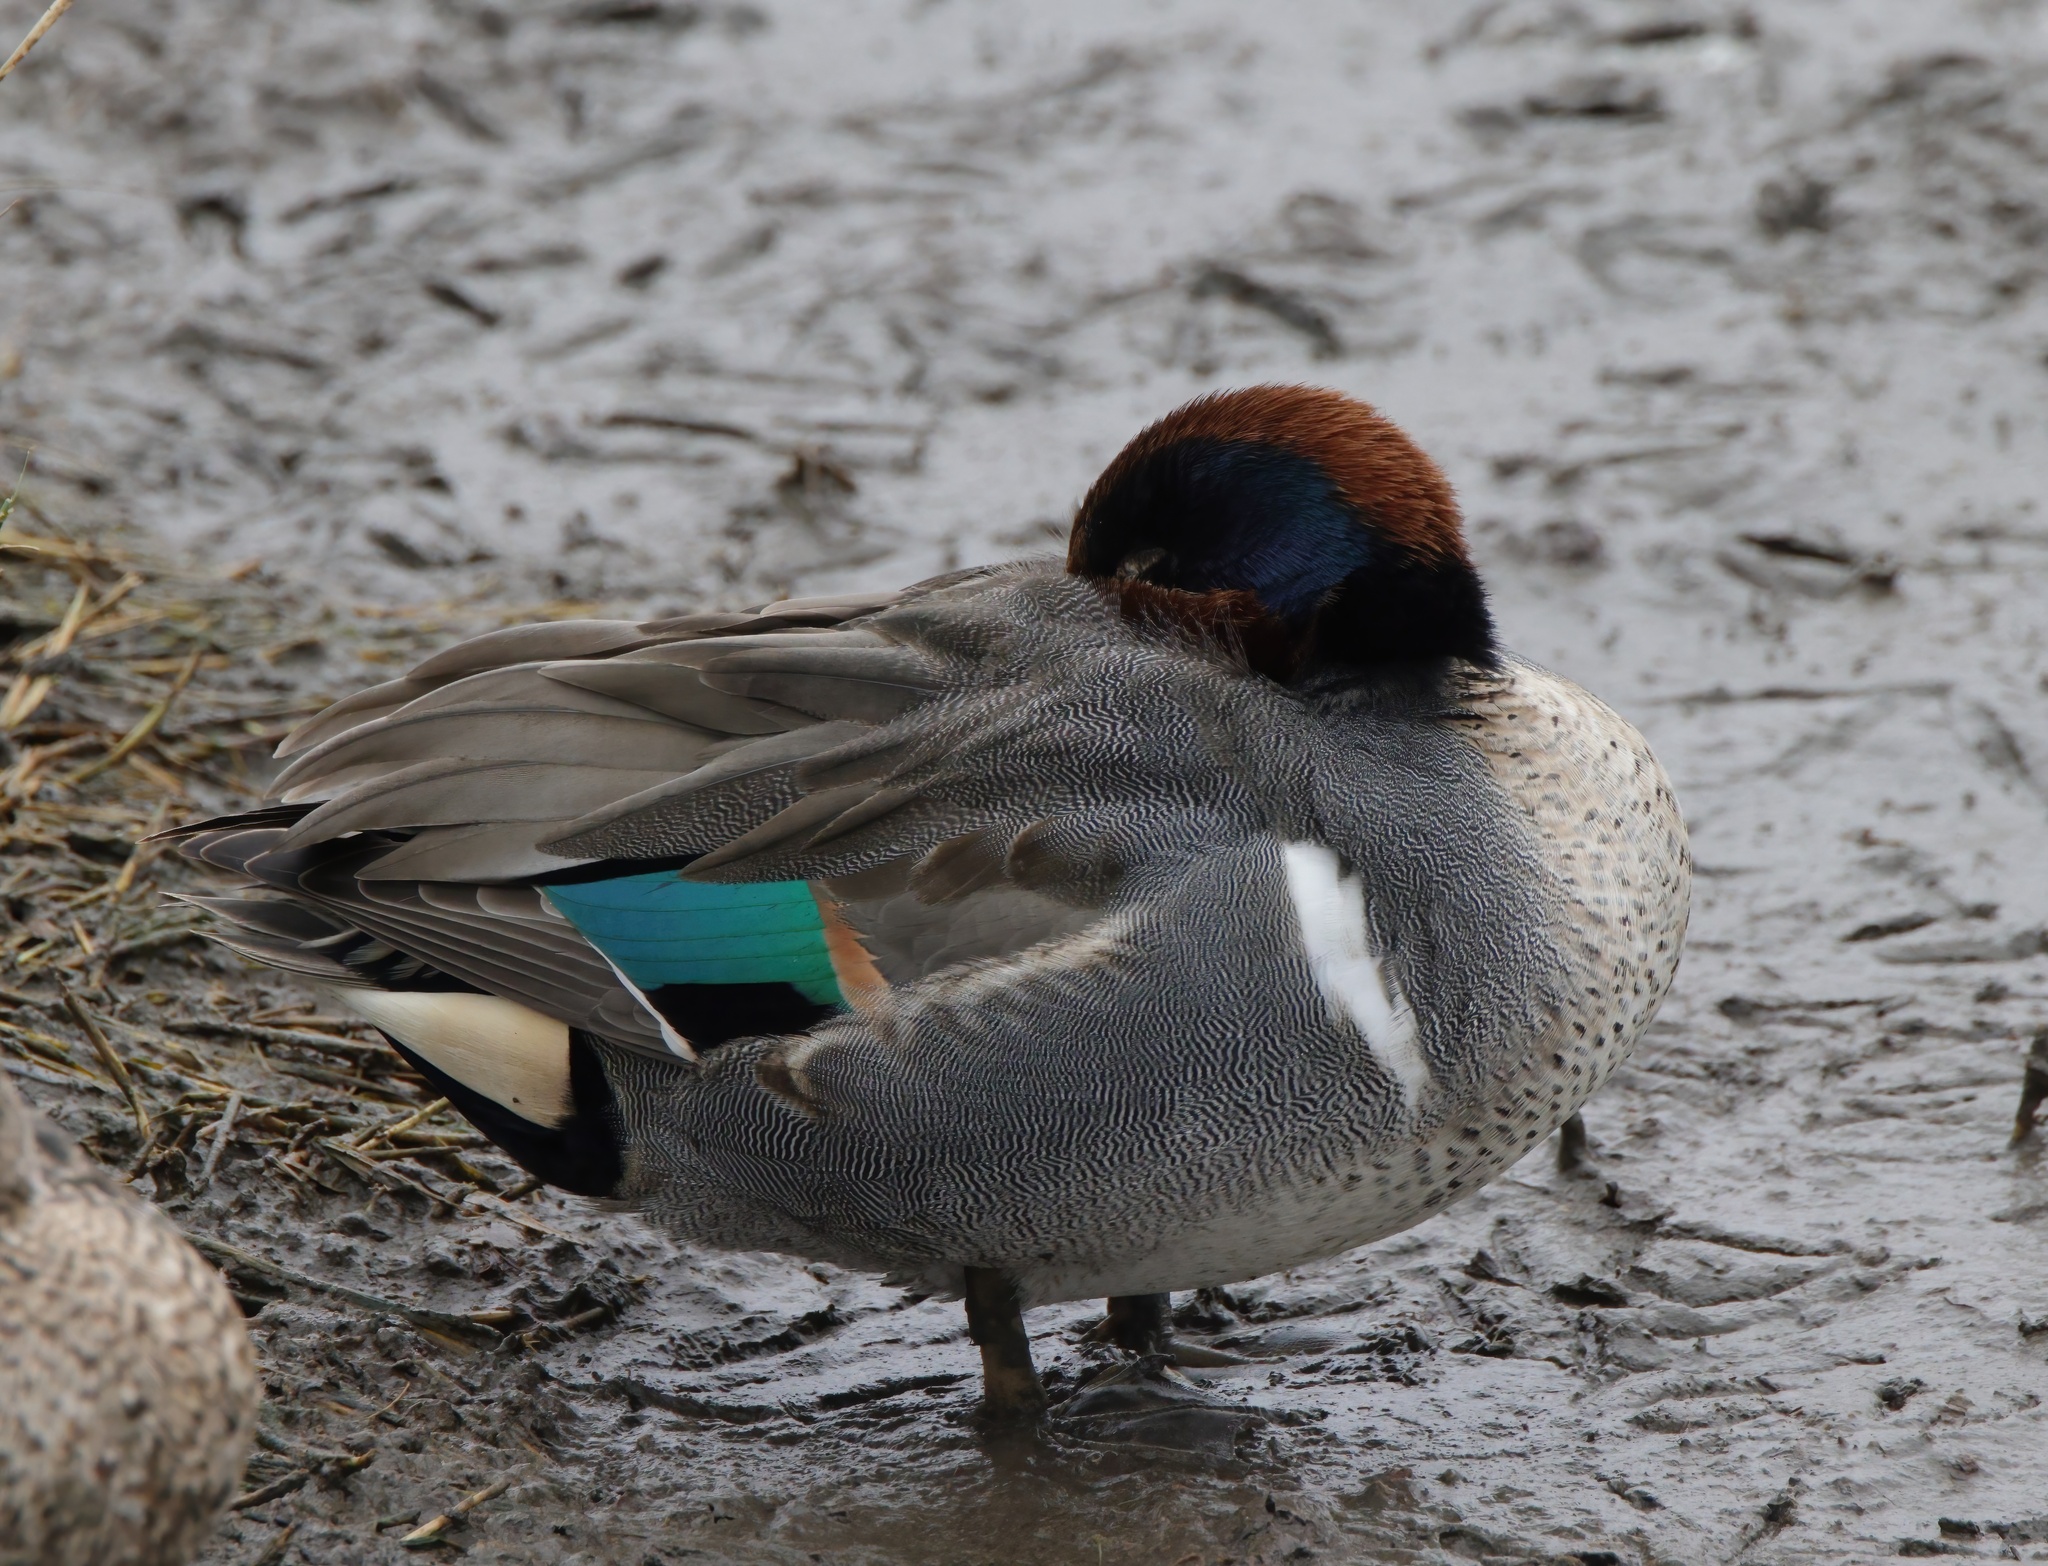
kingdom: Animalia
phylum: Chordata
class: Aves
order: Anseriformes
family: Anatidae
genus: Anas
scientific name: Anas crecca
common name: Eurasian teal
